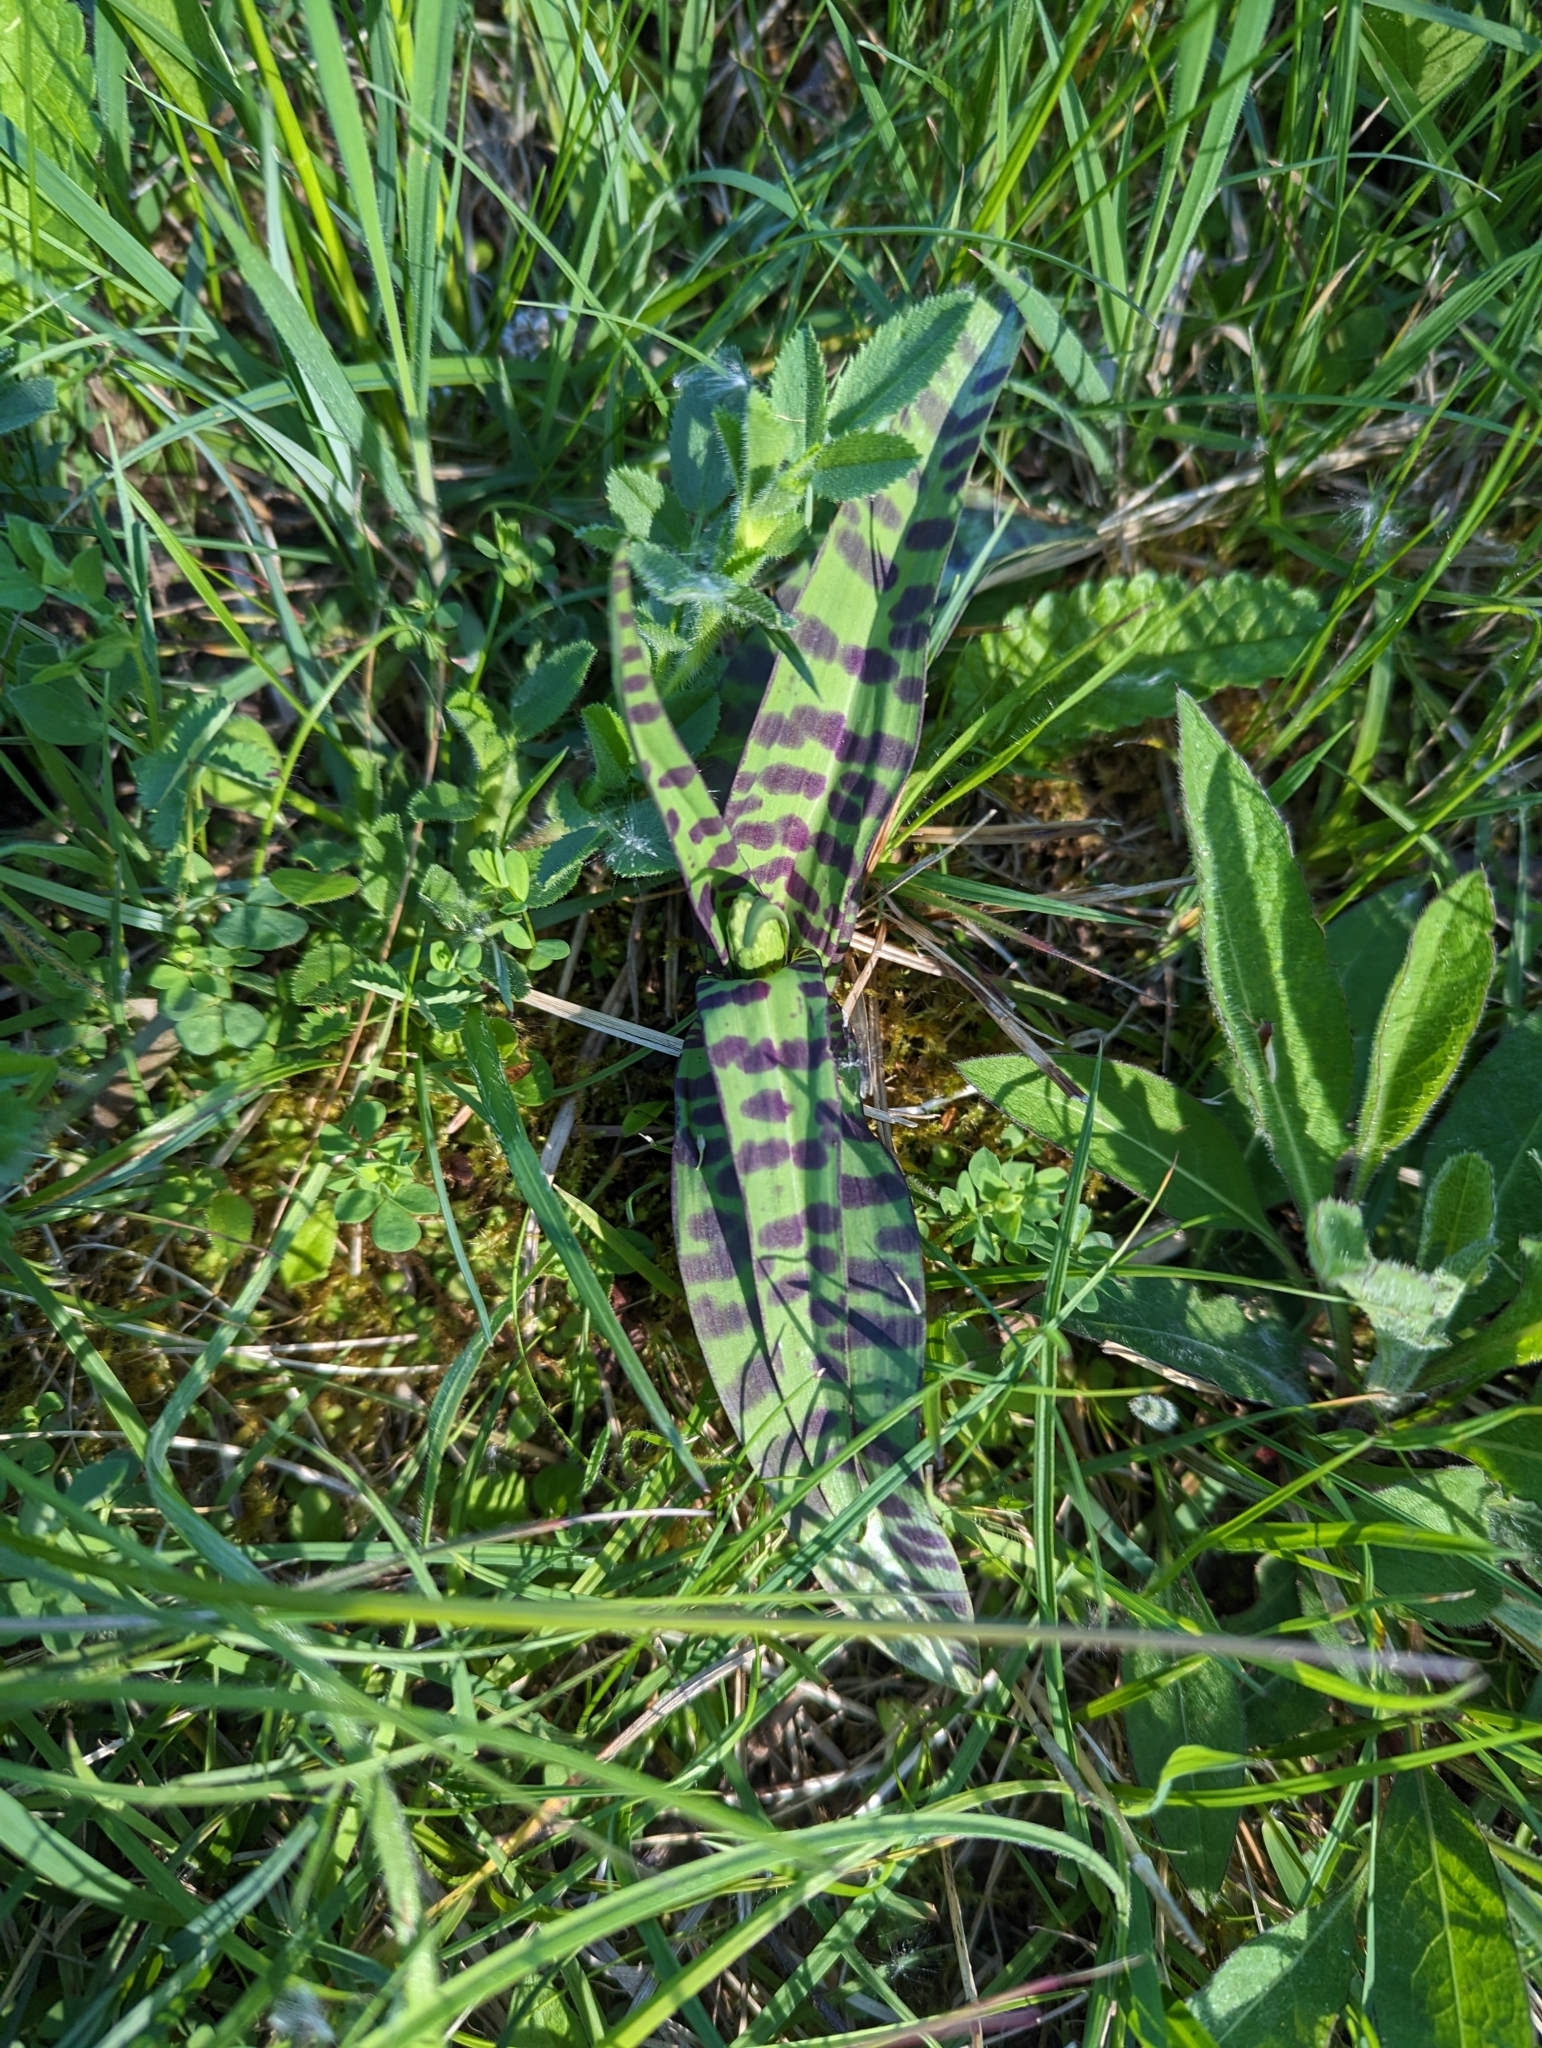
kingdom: Plantae
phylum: Tracheophyta
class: Liliopsida
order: Asparagales
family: Orchidaceae
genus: Dactylorhiza
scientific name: Dactylorhiza maculata
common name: Heath spotted-orchid
